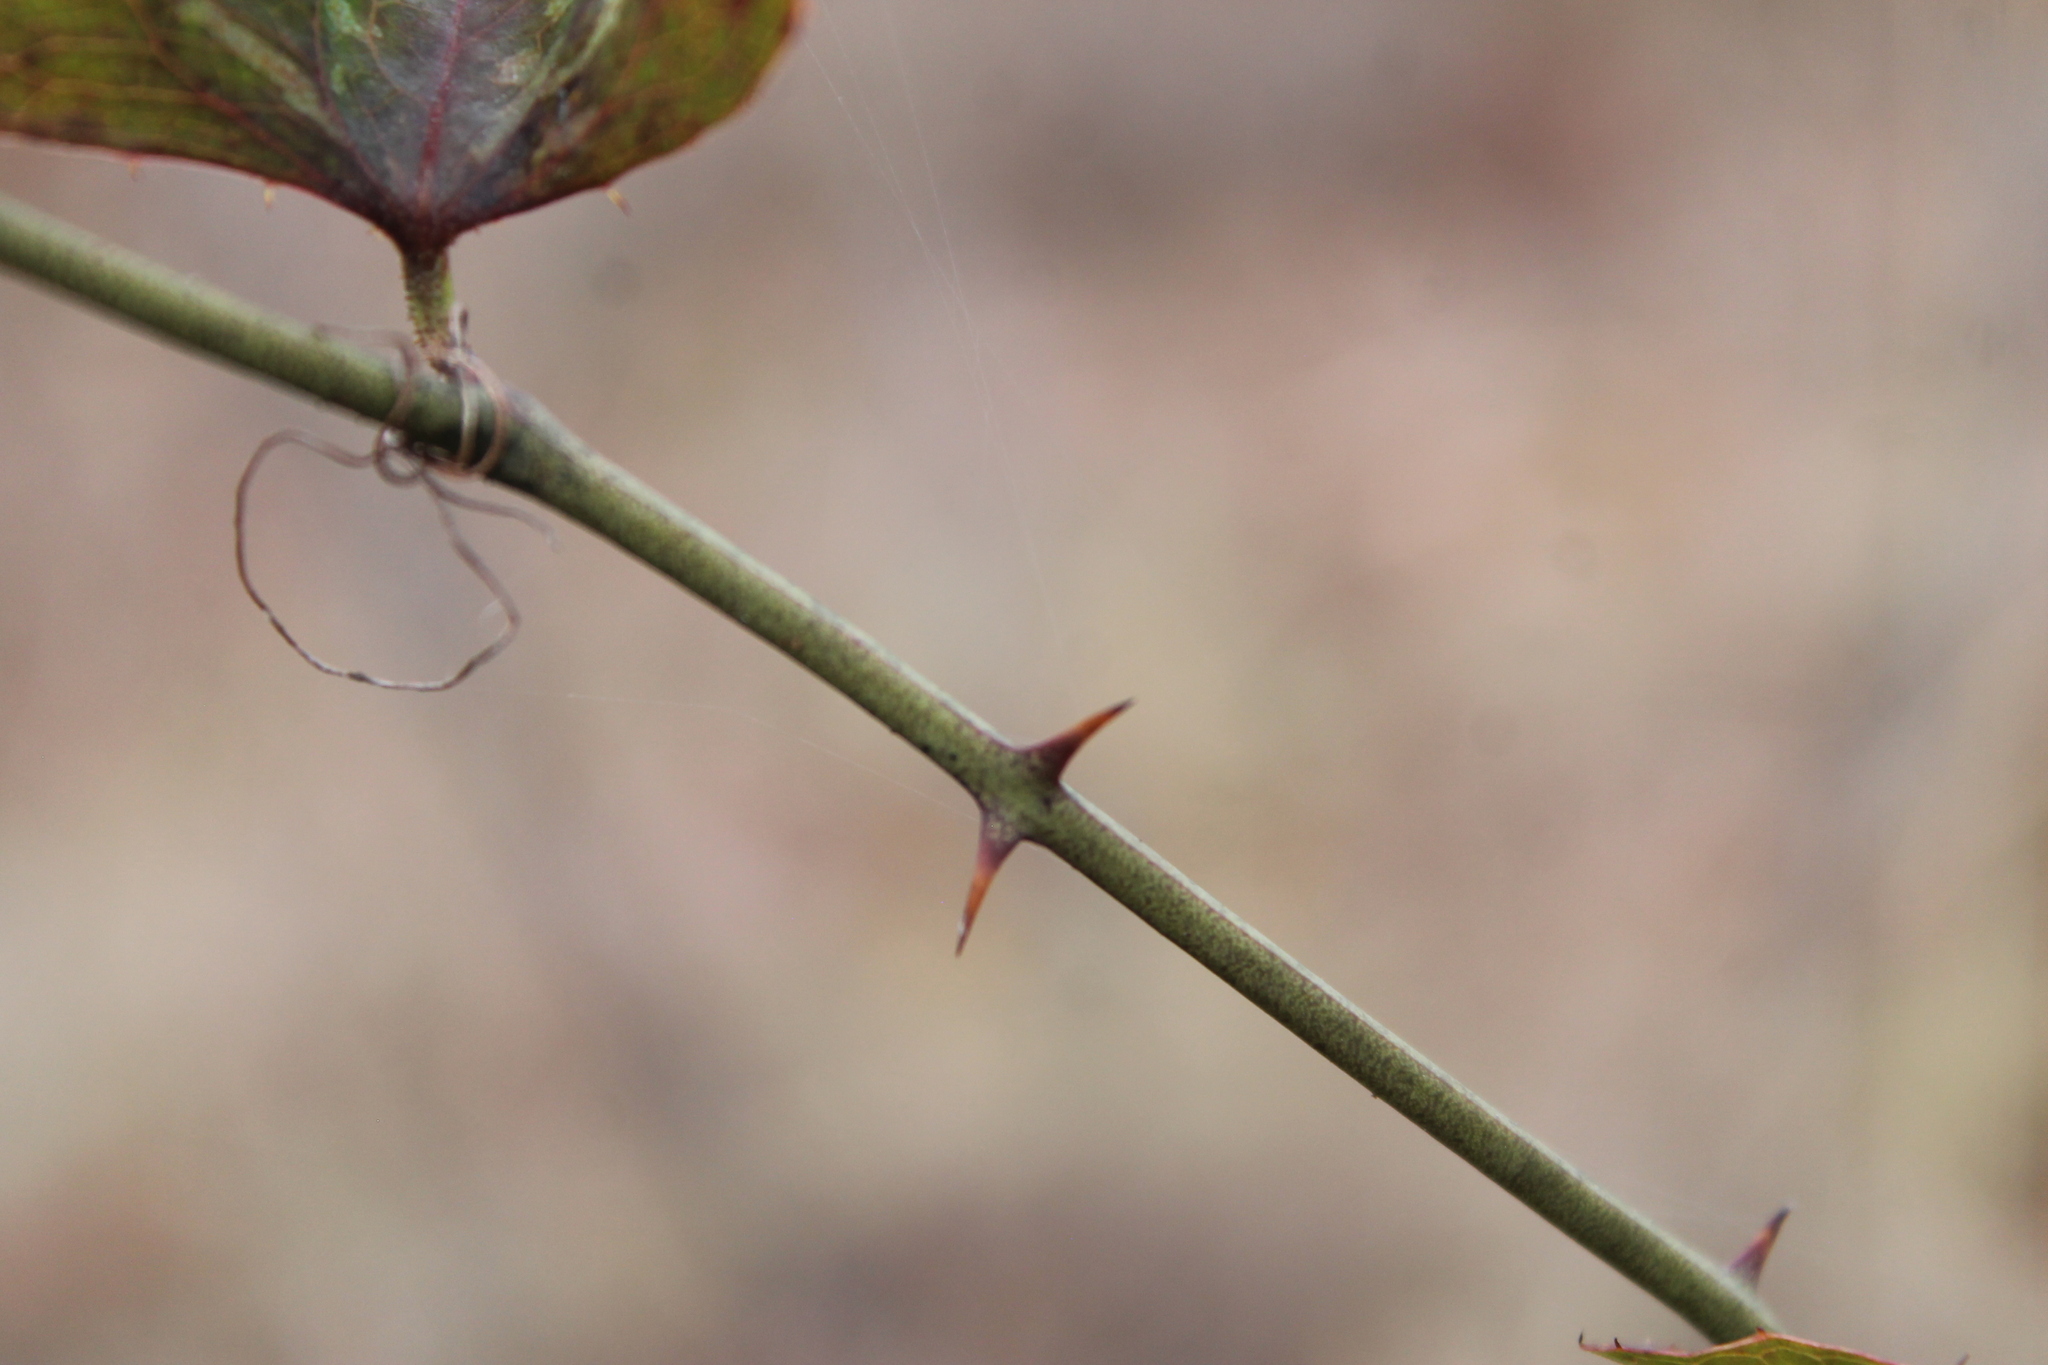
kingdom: Plantae
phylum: Tracheophyta
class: Liliopsida
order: Liliales
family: Smilacaceae
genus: Smilax
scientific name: Smilax bona-nox
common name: Catbrier
